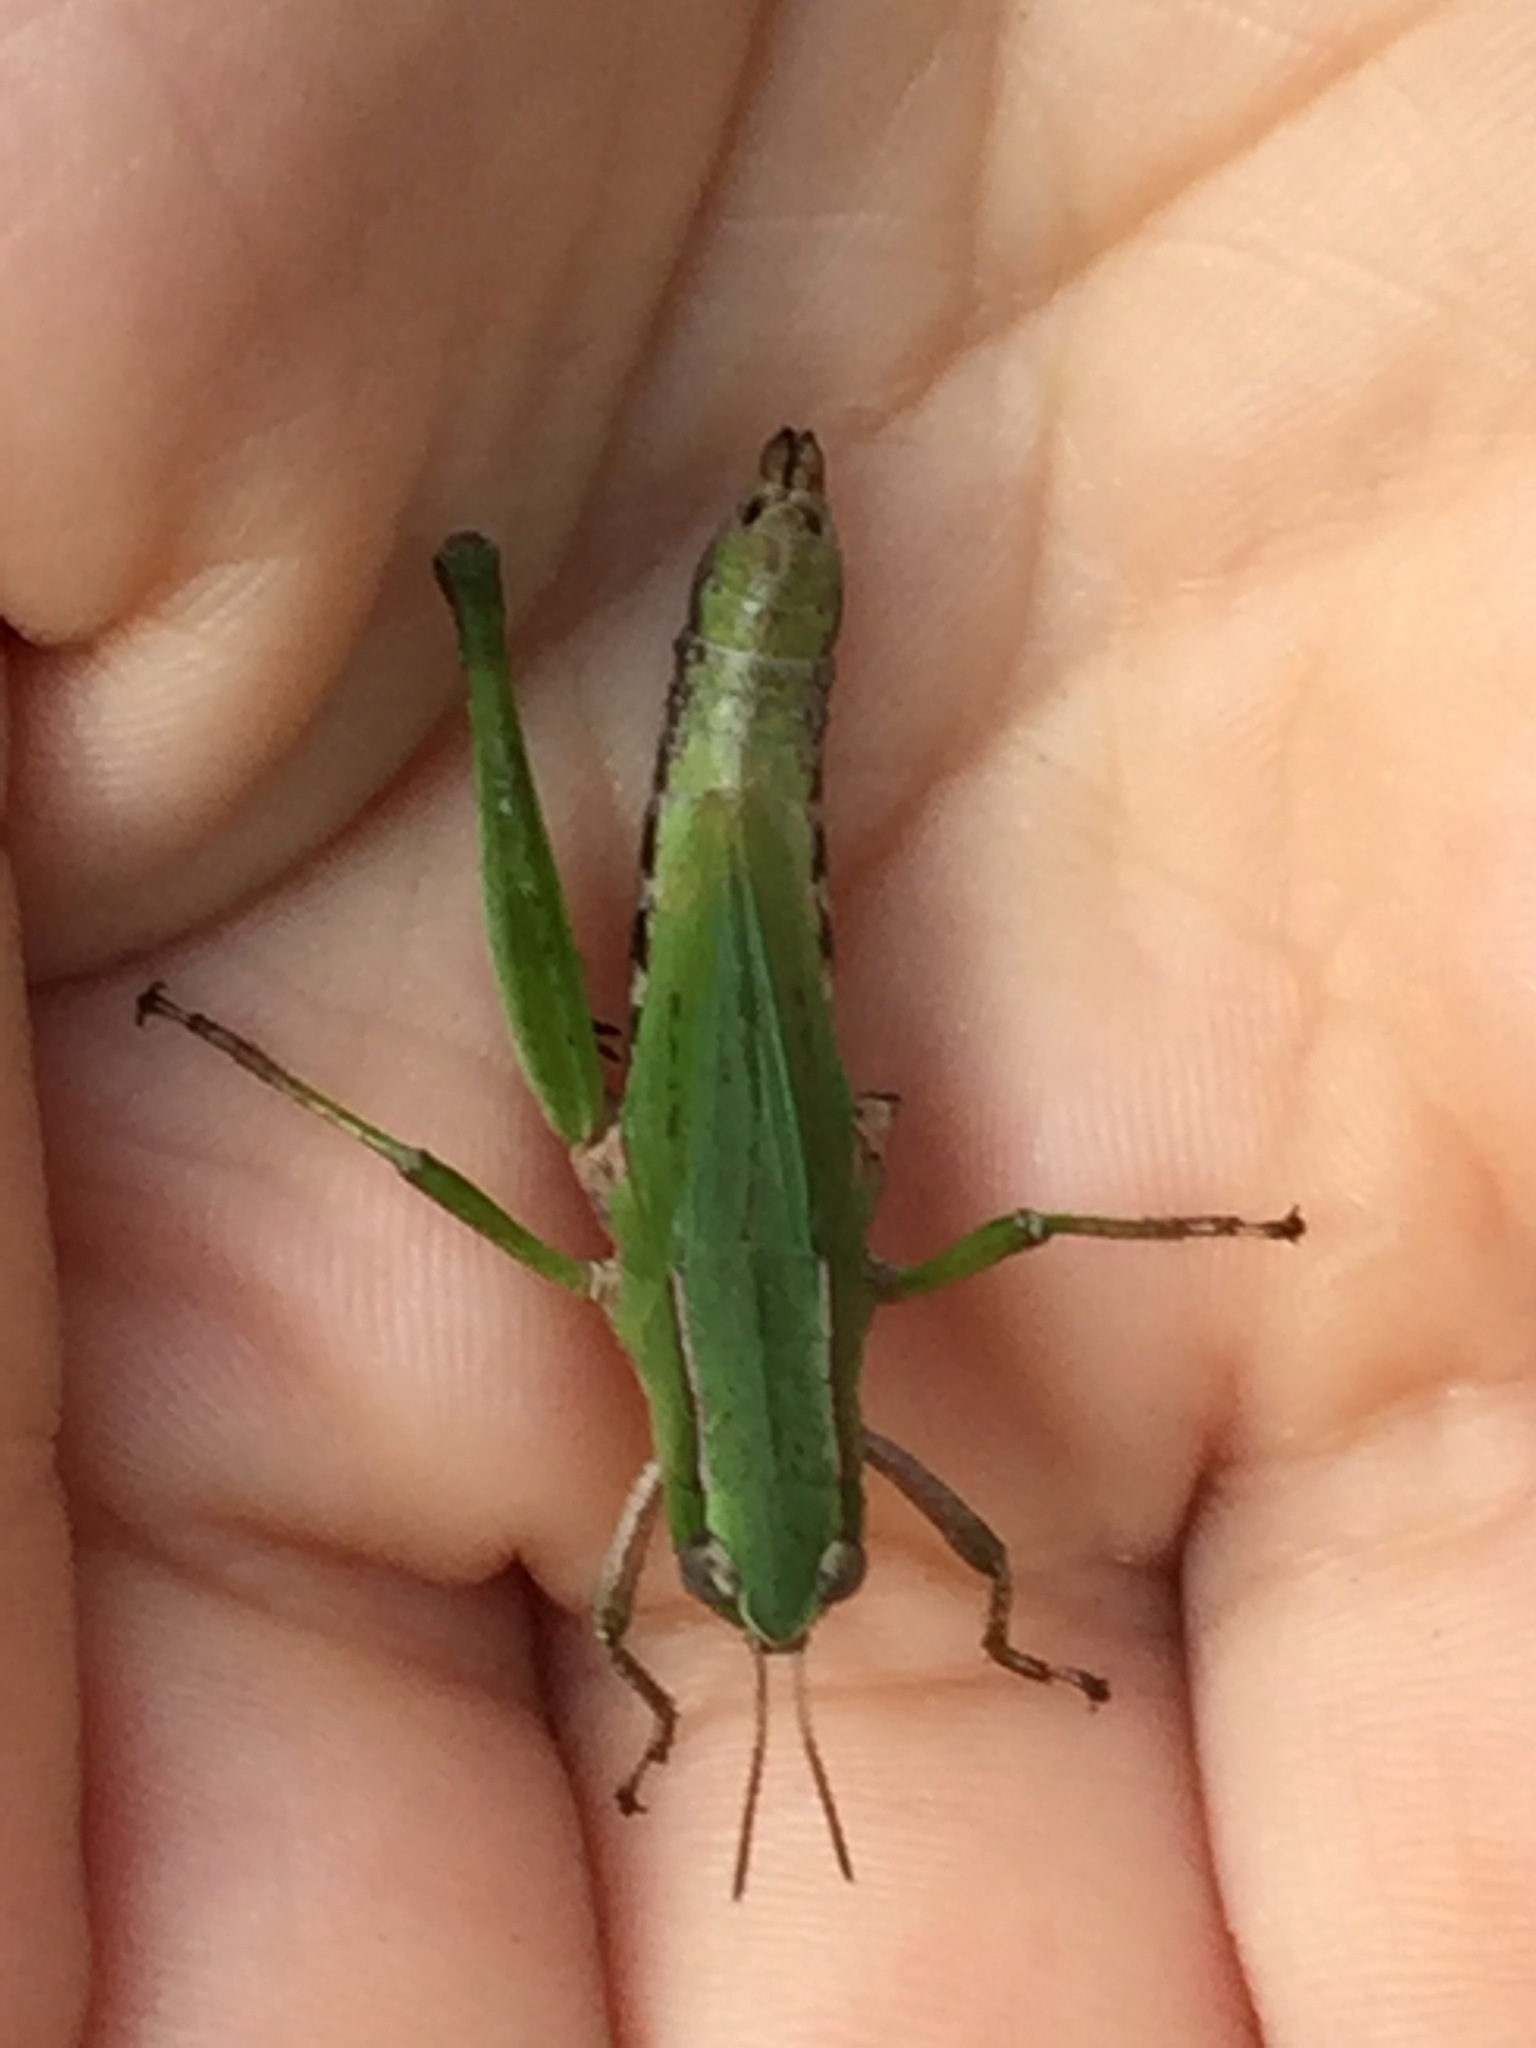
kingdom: Animalia
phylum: Arthropoda
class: Insecta
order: Orthoptera
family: Acrididae
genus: Dichromorpha
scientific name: Dichromorpha viridis
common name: Short-winged green grasshopper
